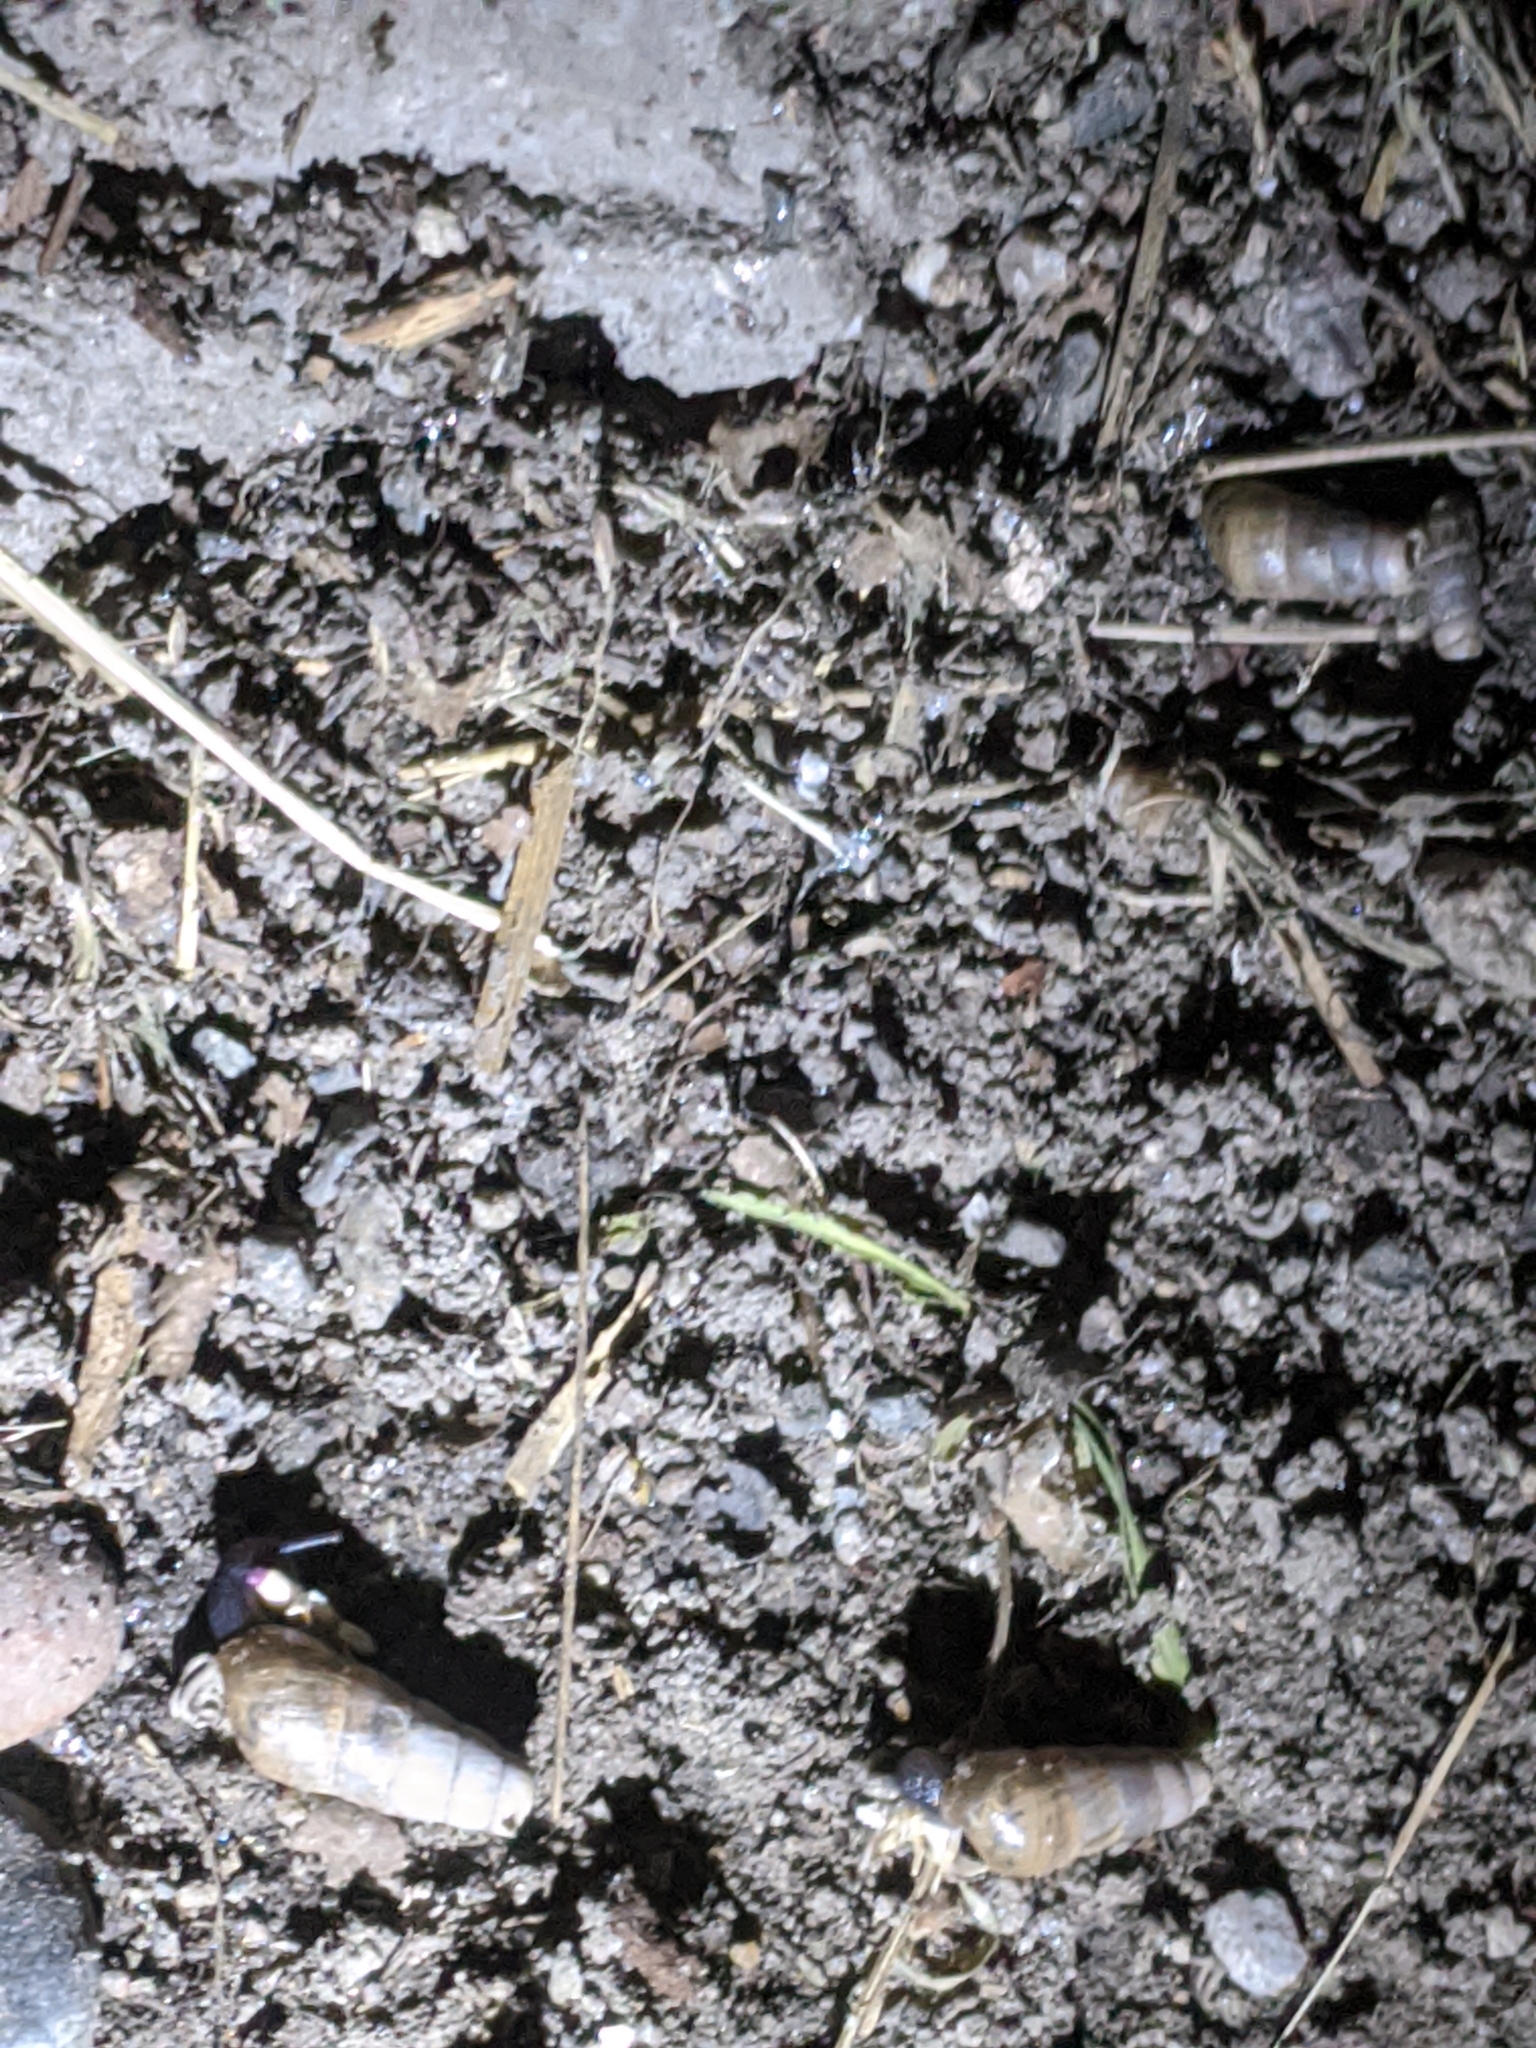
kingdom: Animalia
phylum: Mollusca
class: Gastropoda
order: Stylommatophora
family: Achatinidae
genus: Rumina
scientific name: Rumina decollata
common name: Decollate snail
